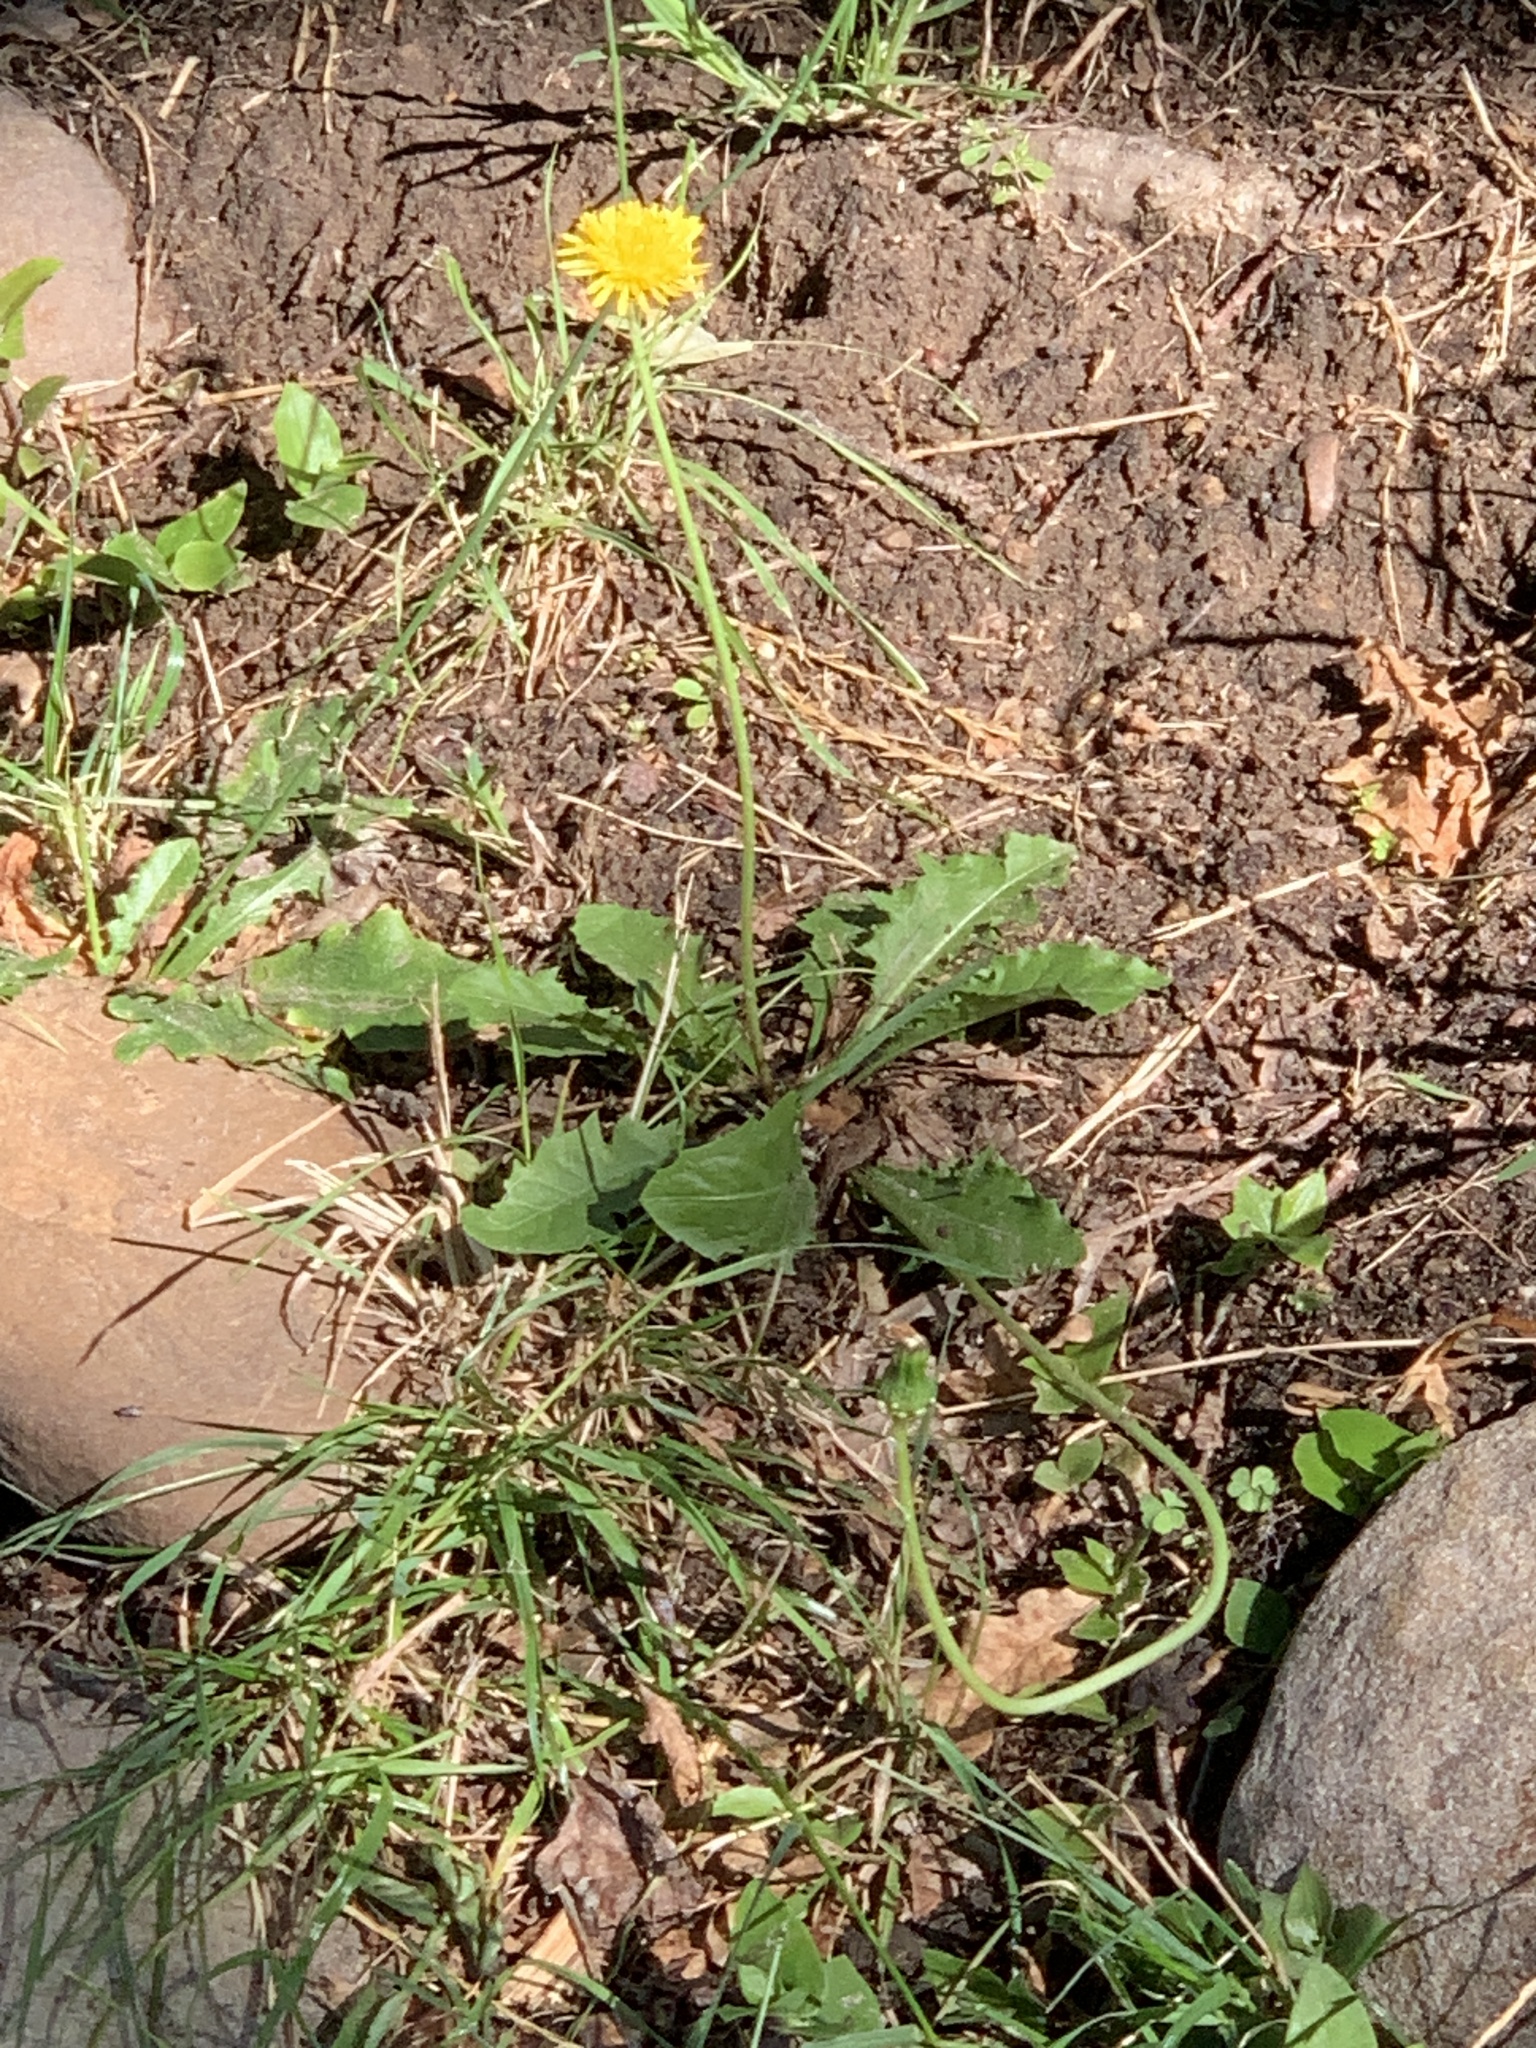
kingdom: Plantae
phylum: Tracheophyta
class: Magnoliopsida
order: Asterales
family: Asteraceae
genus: Taraxacum
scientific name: Taraxacum officinale
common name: Common dandelion
